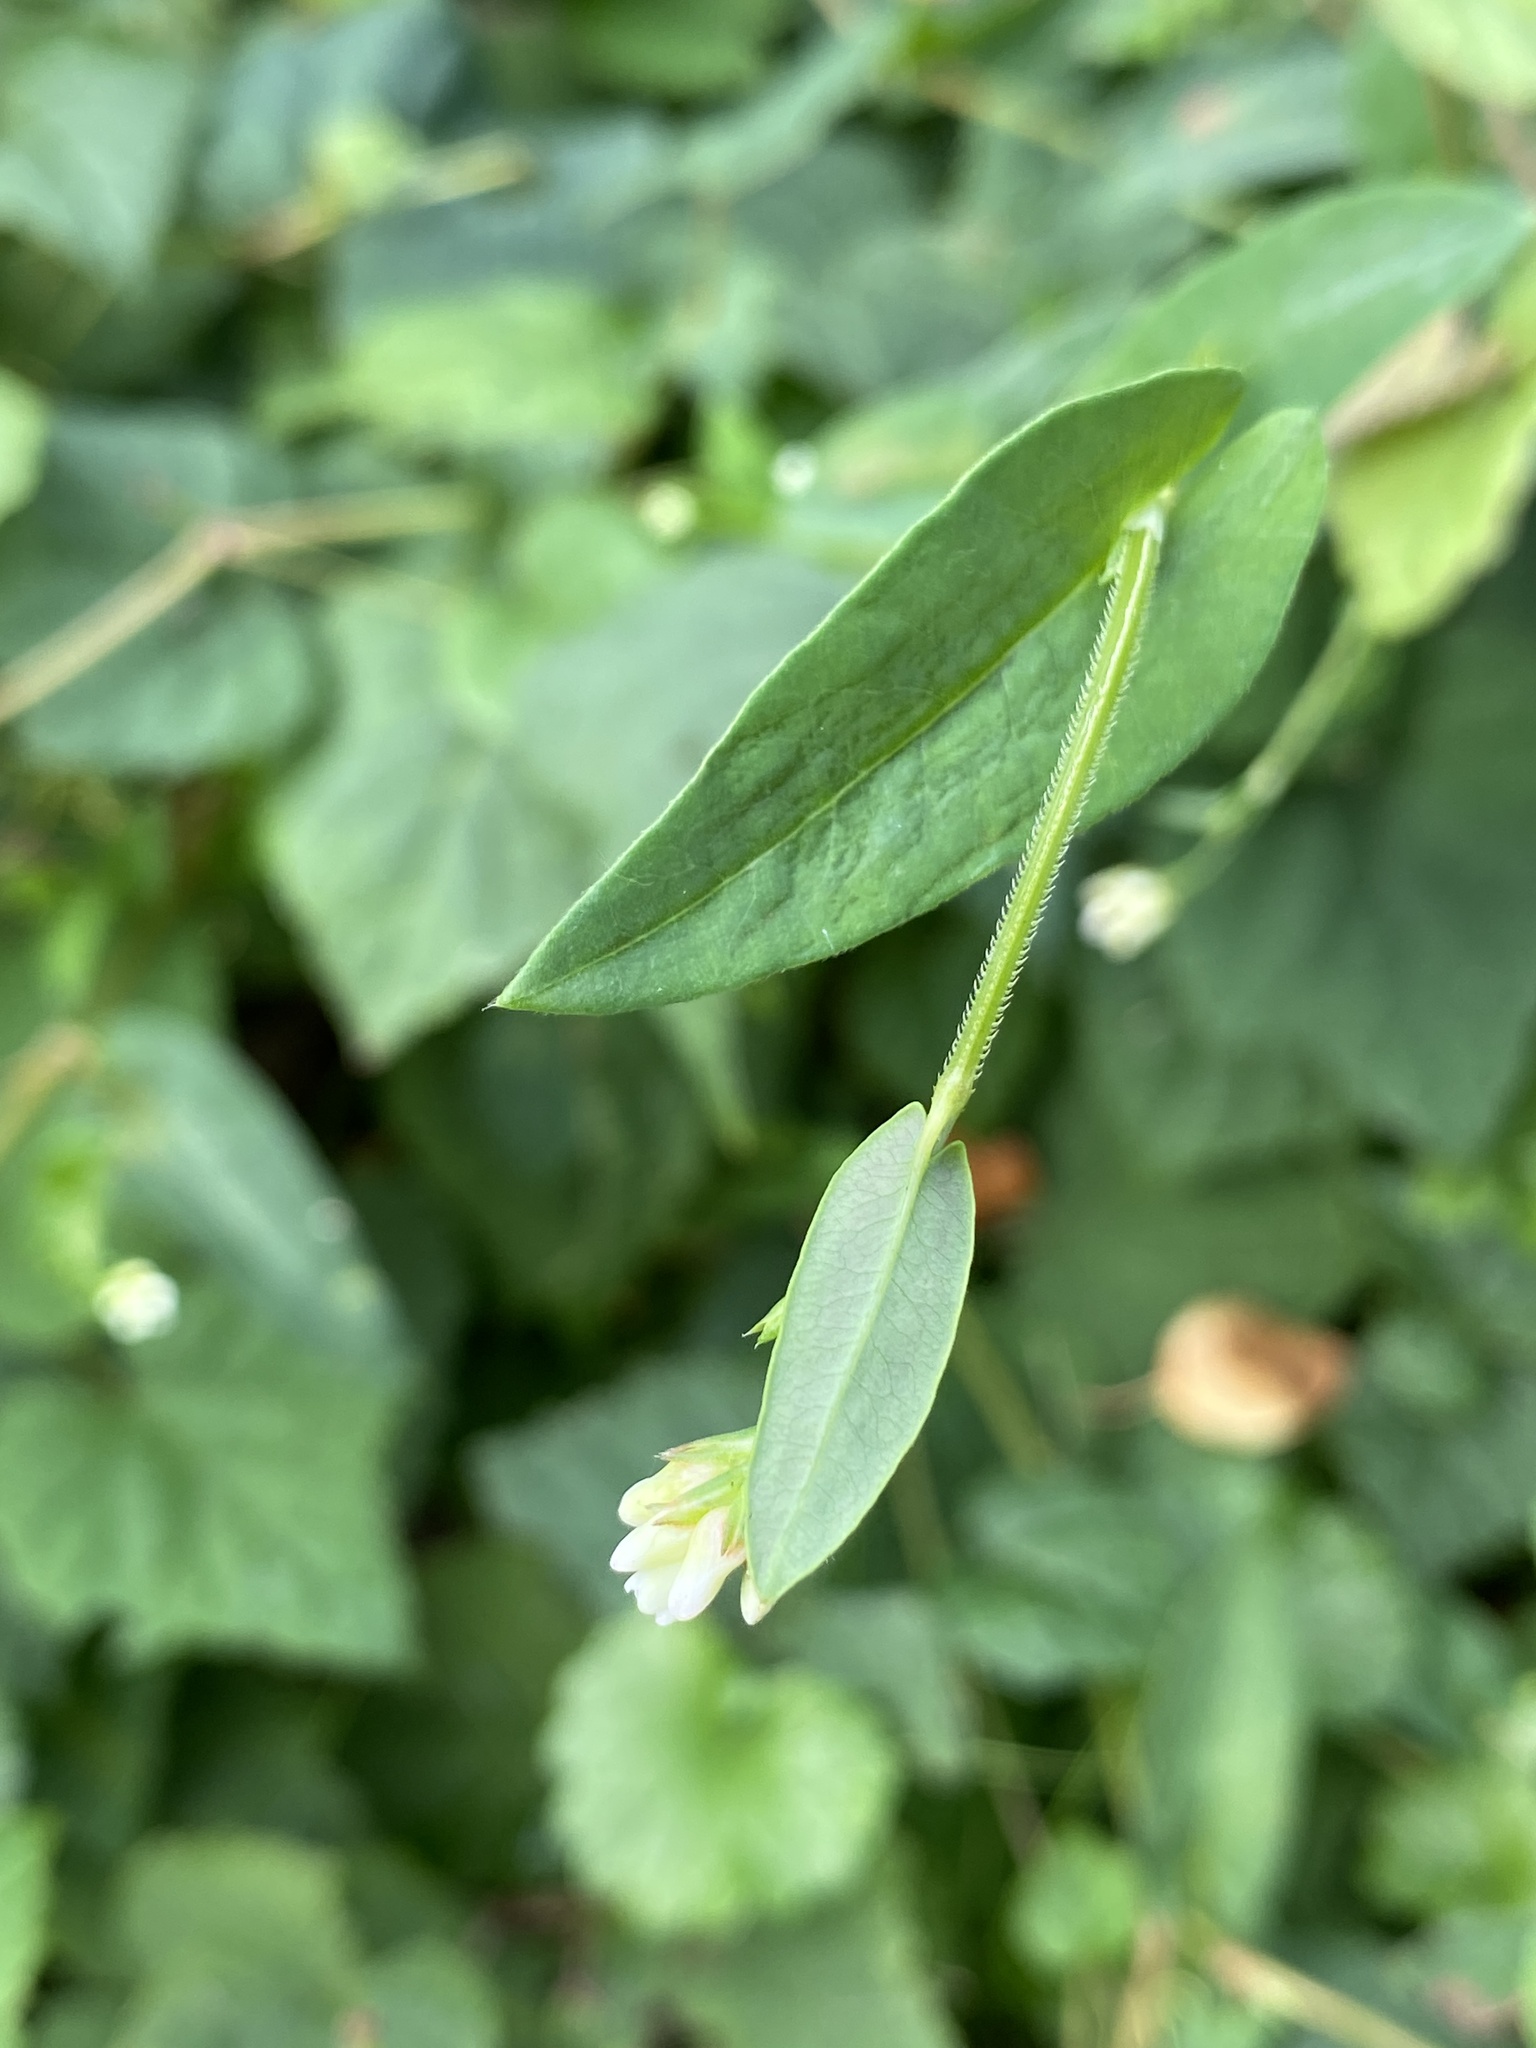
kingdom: Plantae
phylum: Tracheophyta
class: Magnoliopsida
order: Caryophyllales
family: Polygonaceae
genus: Persicaria
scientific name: Persicaria sagittata
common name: American tearthumb
